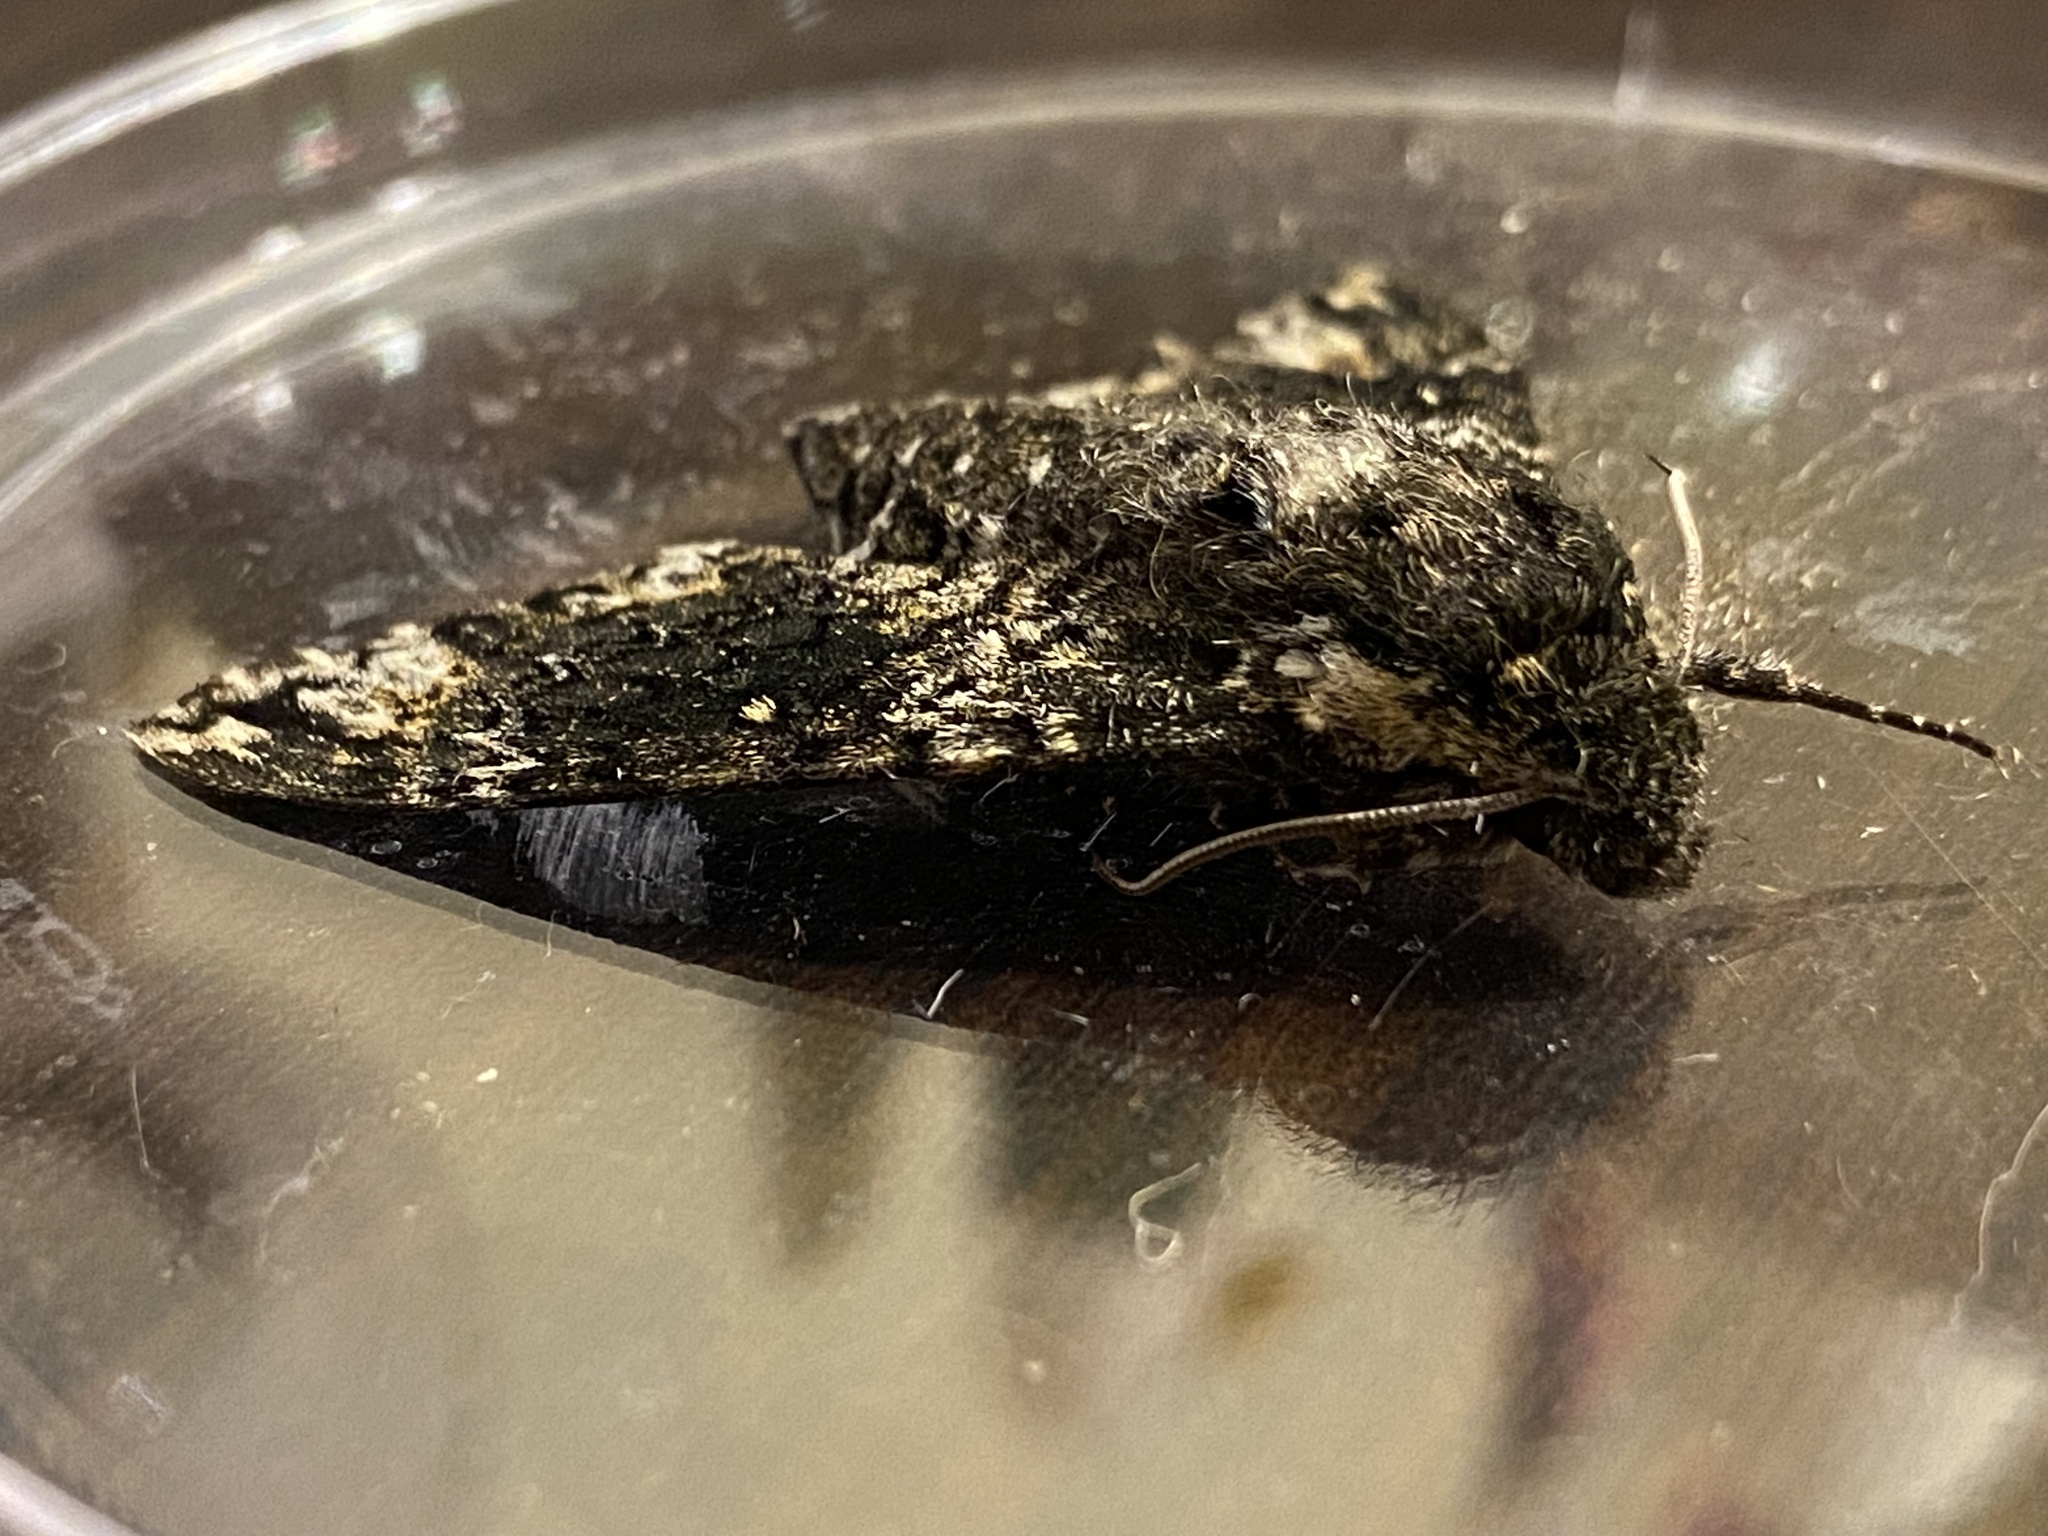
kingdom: Animalia
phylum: Arthropoda
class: Insecta
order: Lepidoptera
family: Sphingidae
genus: Dolba
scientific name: Dolba hyloeus
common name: Pawpaw sphinx
